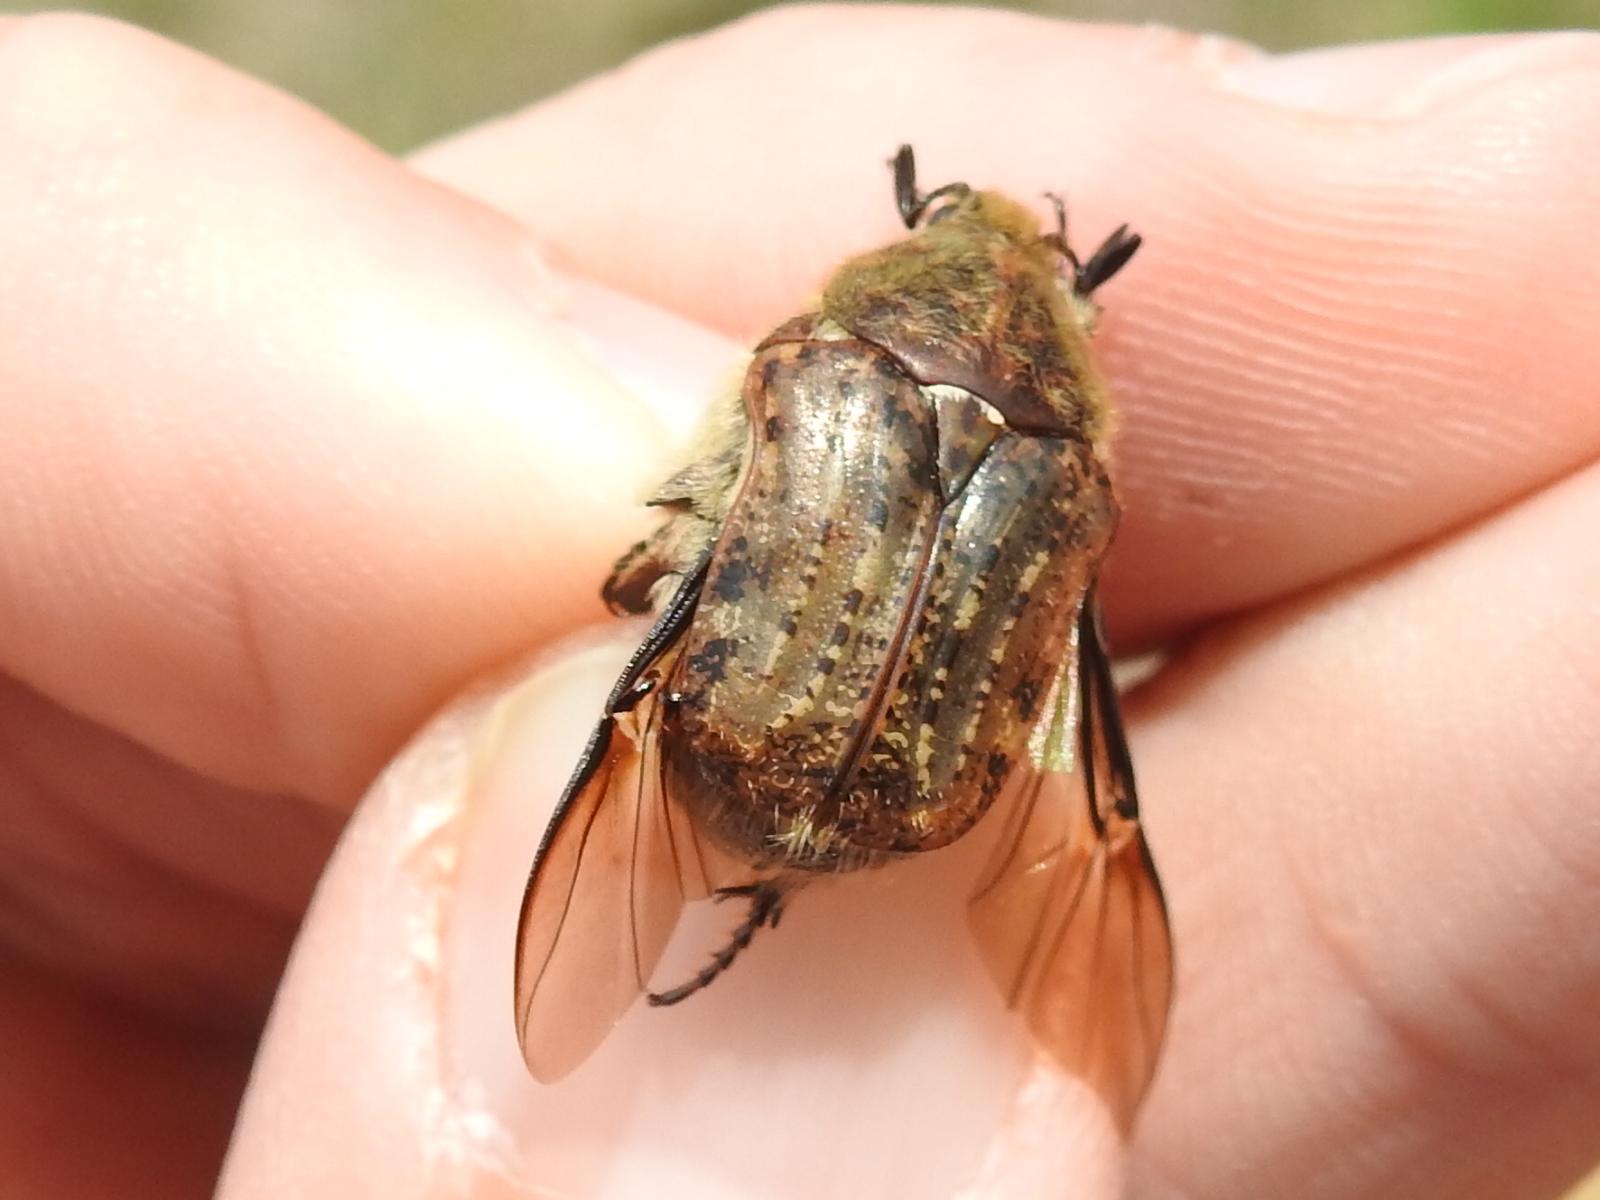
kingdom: Animalia
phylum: Arthropoda
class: Insecta
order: Coleoptera
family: Scarabaeidae
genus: Euphoria
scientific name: Euphoria inda
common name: Bumble flower beetle
